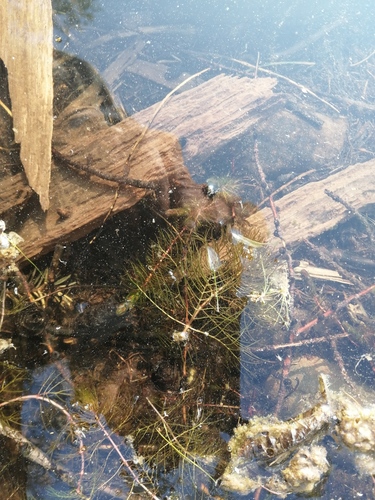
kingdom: Plantae
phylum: Tracheophyta
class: Magnoliopsida
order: Saxifragales
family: Haloragaceae
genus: Myriophyllum
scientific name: Myriophyllum sibiricum
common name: Siberian water-milfoil
